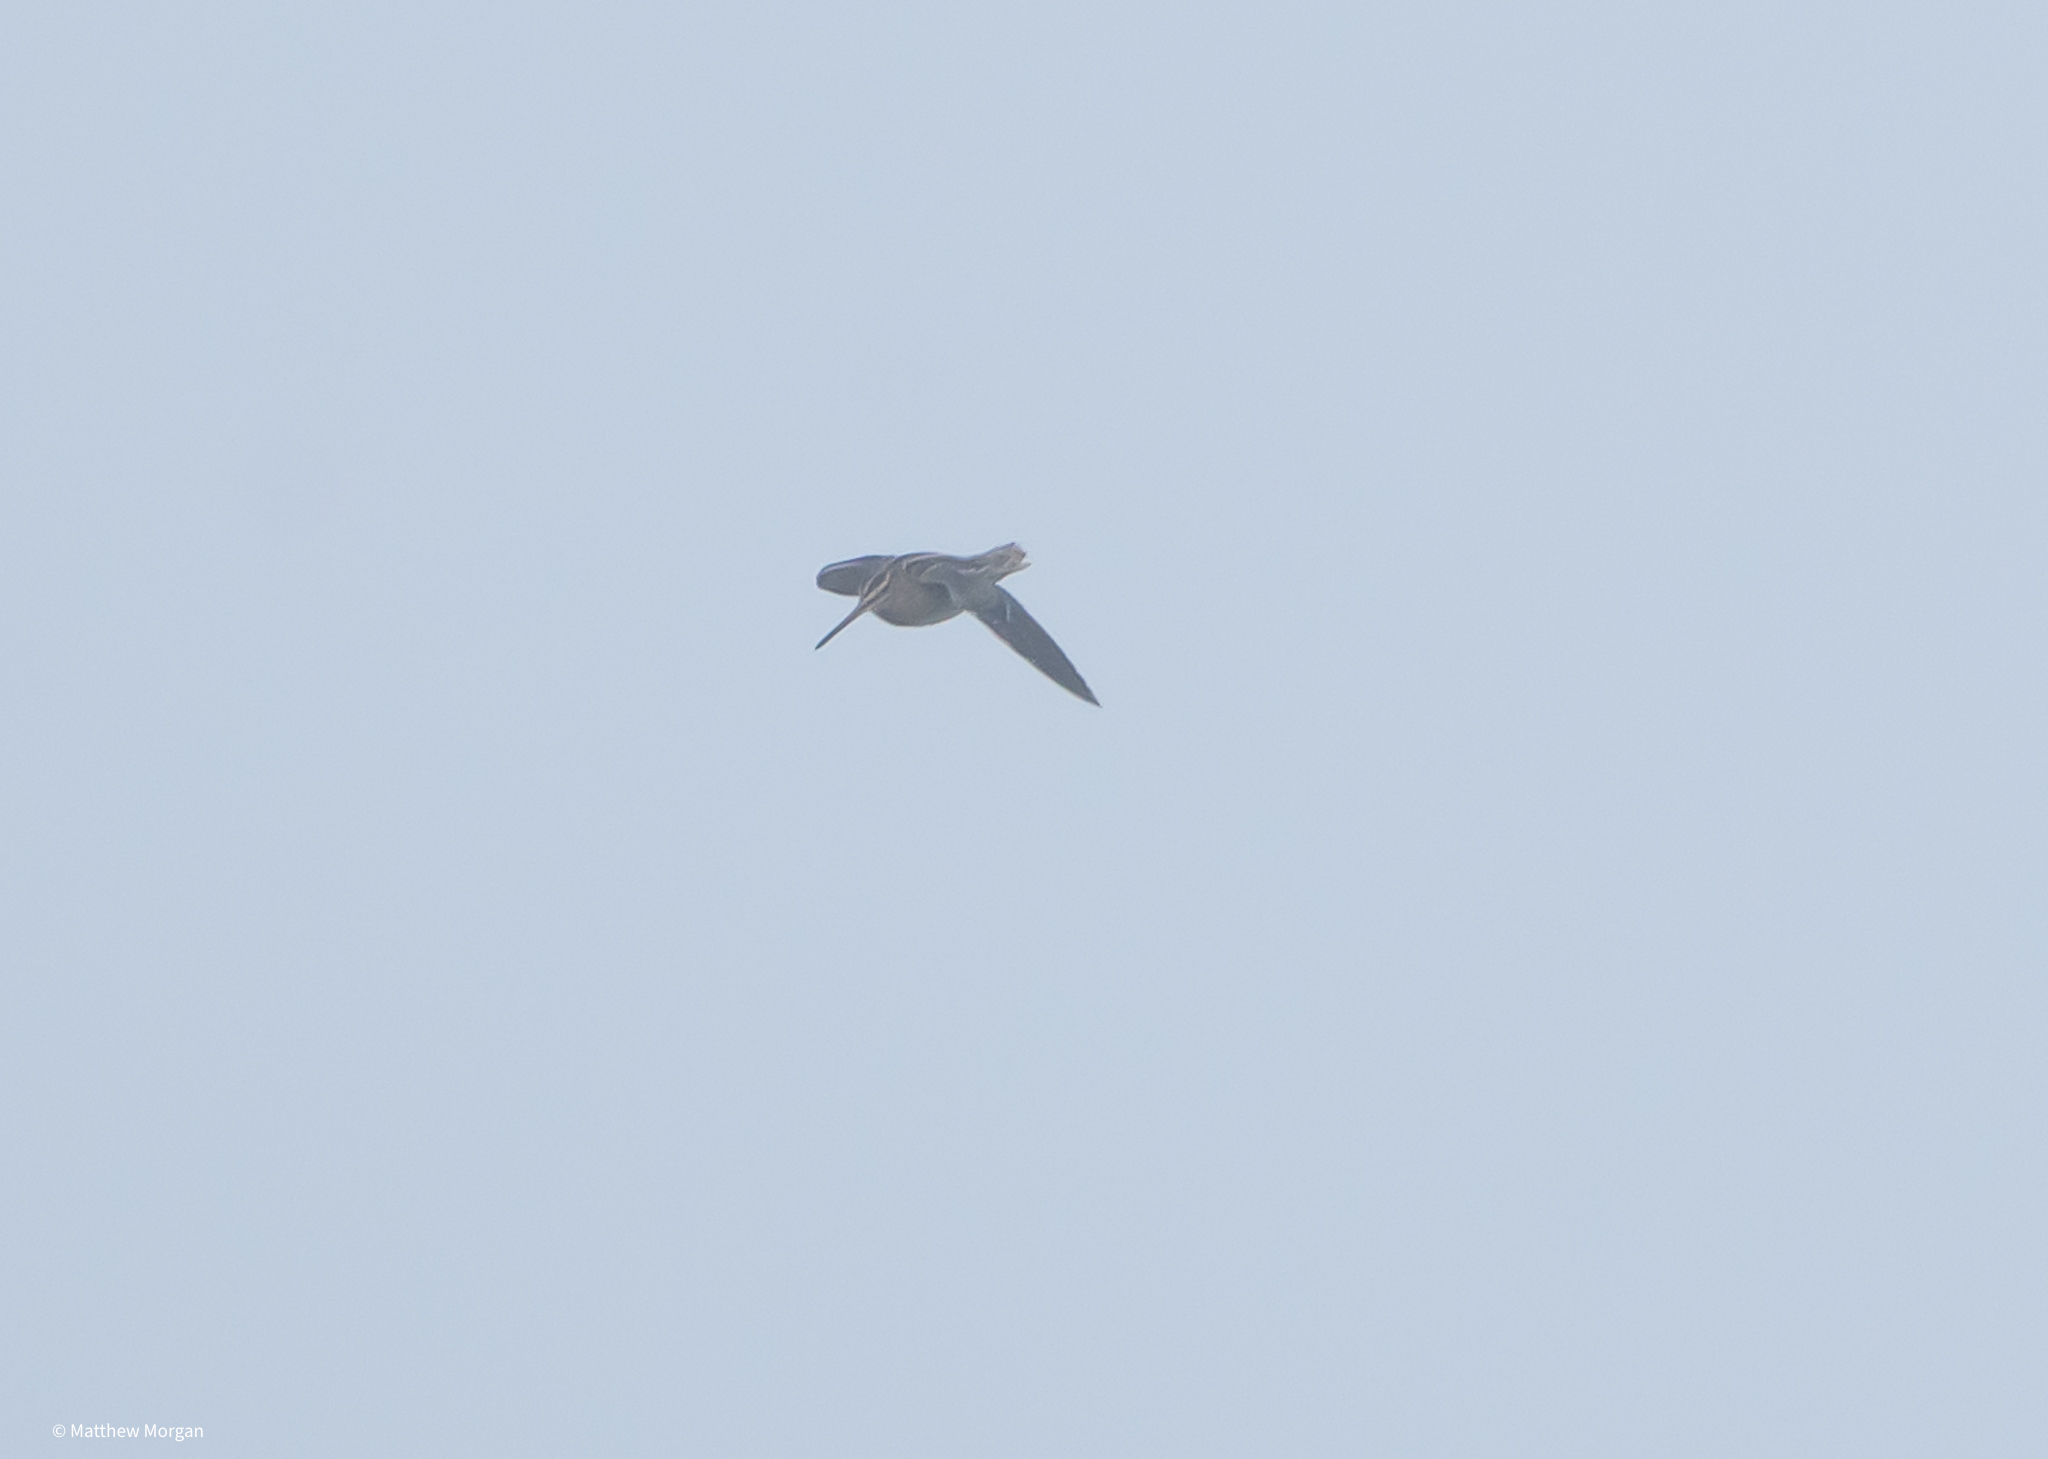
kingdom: Animalia
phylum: Chordata
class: Aves
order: Charadriiformes
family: Scolopacidae
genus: Gallinago
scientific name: Gallinago gallinago
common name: Common snipe
